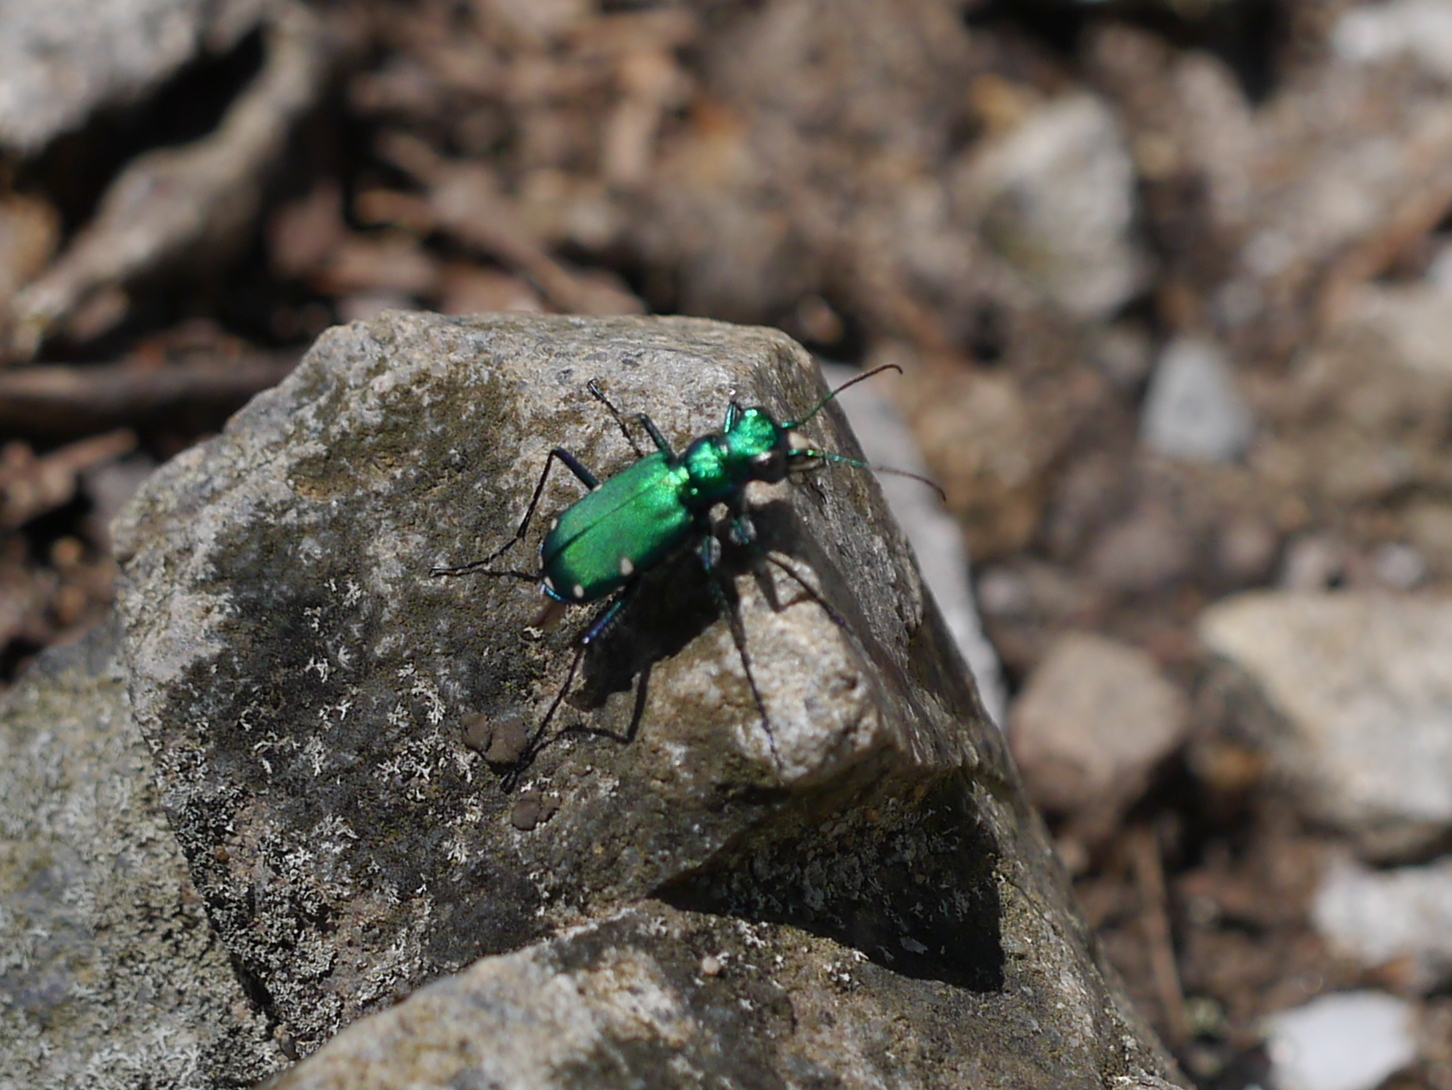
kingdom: Animalia
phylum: Arthropoda
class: Insecta
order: Coleoptera
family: Carabidae
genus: Cicindela
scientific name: Cicindela sexguttata
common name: Six-spotted tiger beetle
